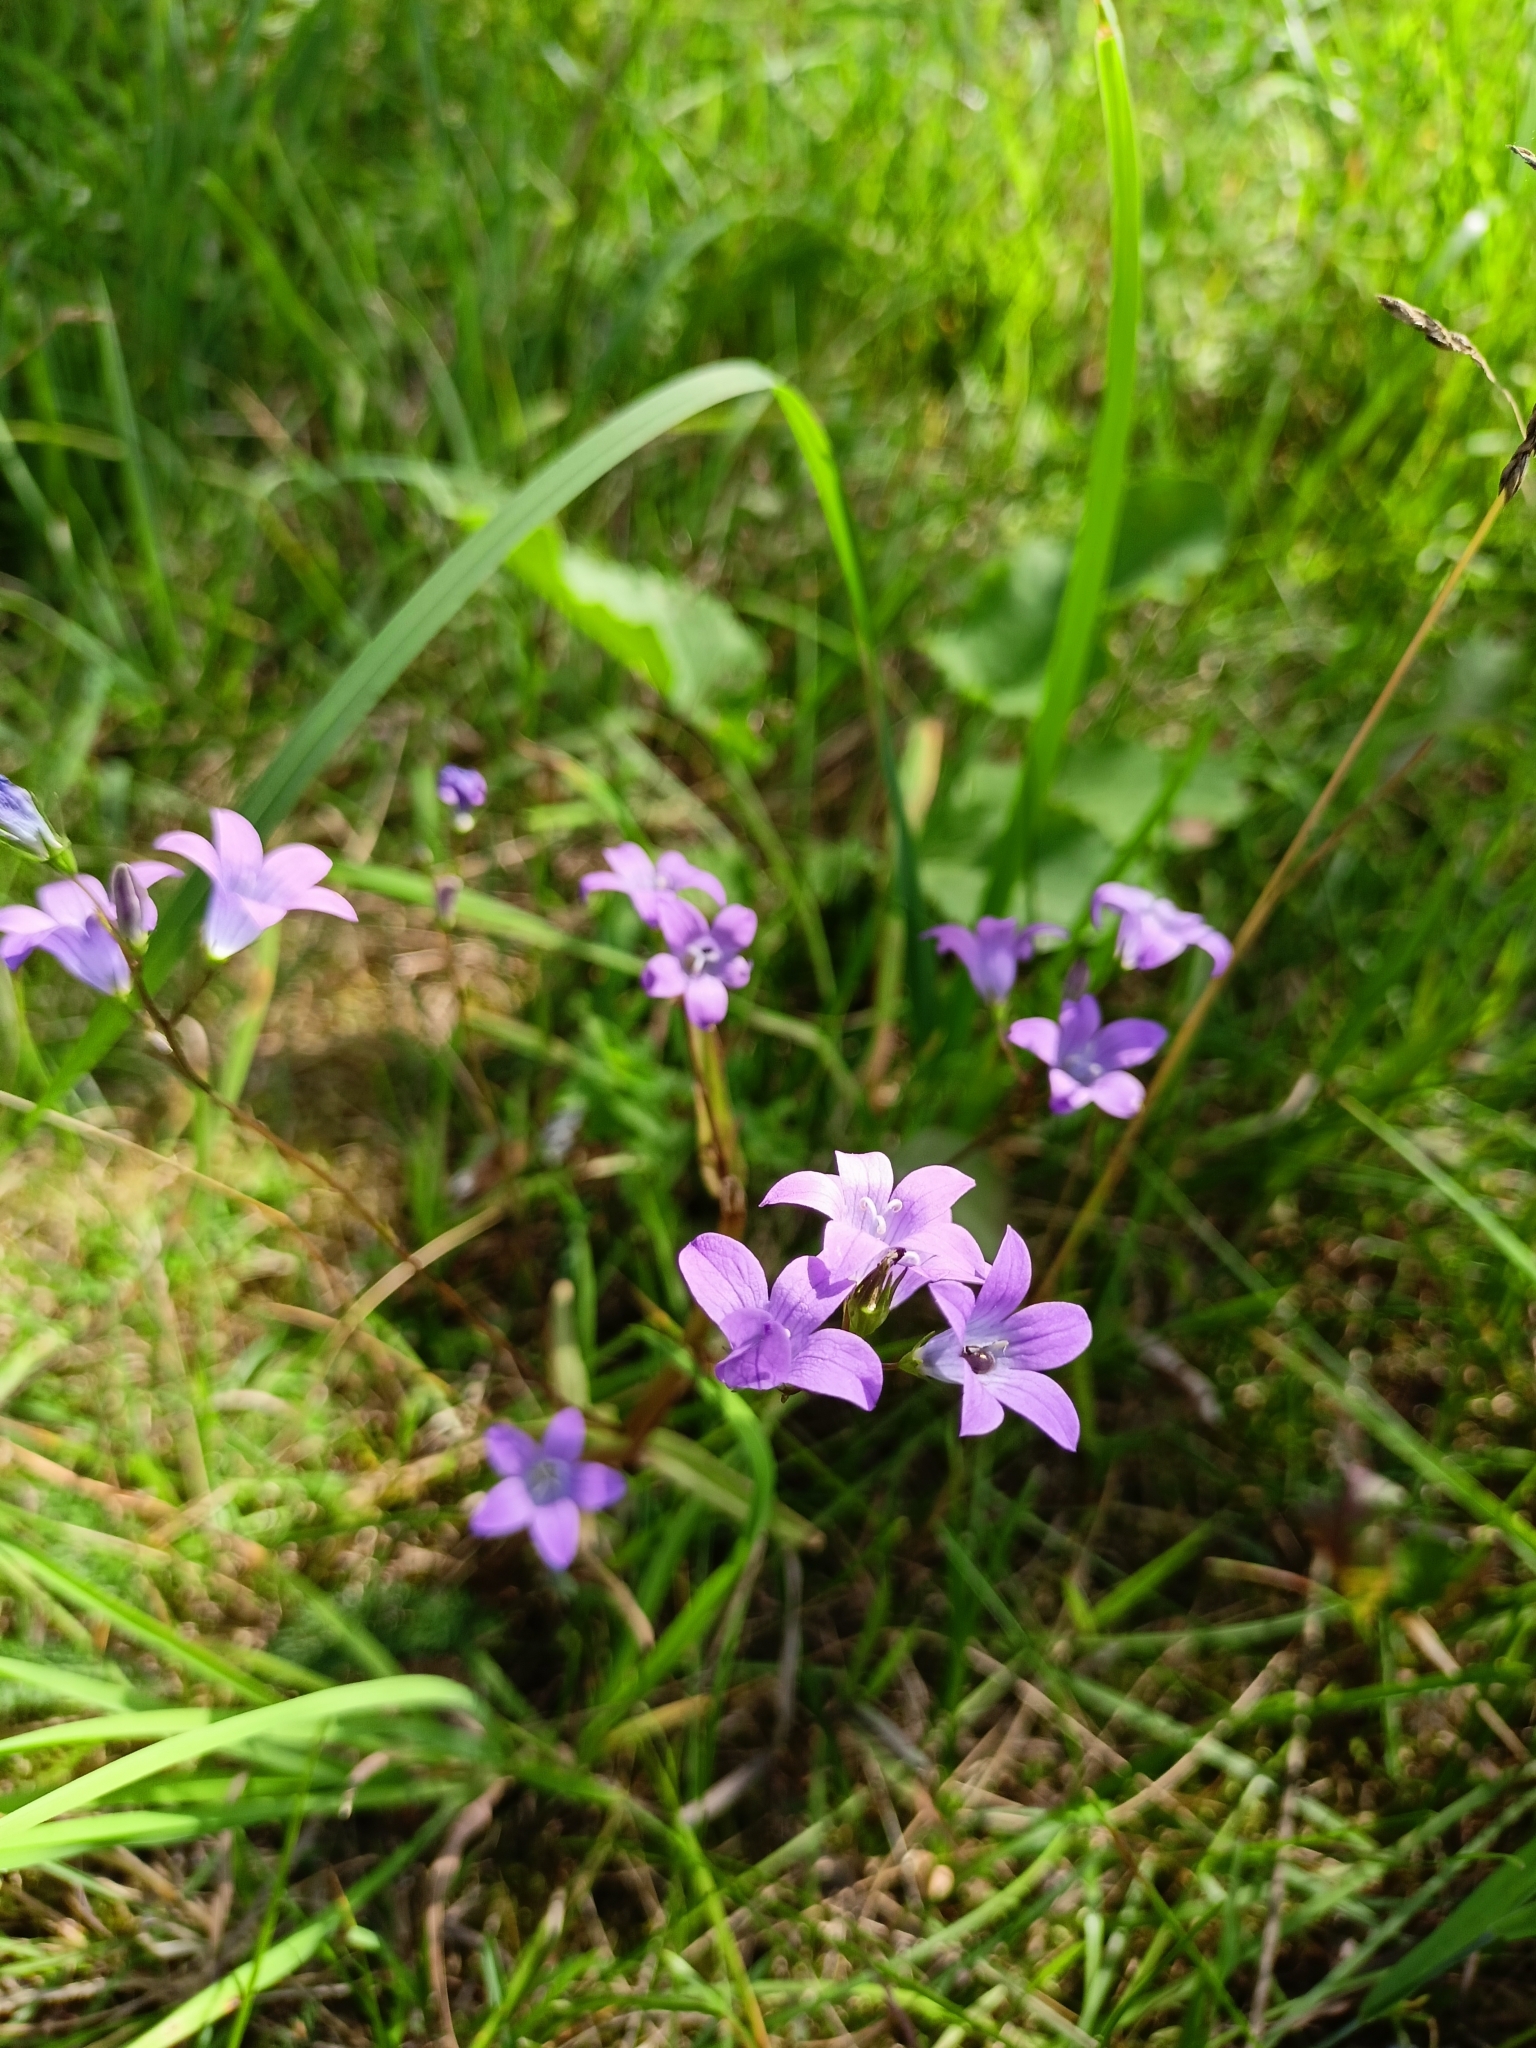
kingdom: Plantae
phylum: Tracheophyta
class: Magnoliopsida
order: Asterales
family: Campanulaceae
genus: Campanula
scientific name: Campanula patula
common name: Spreading bellflower
